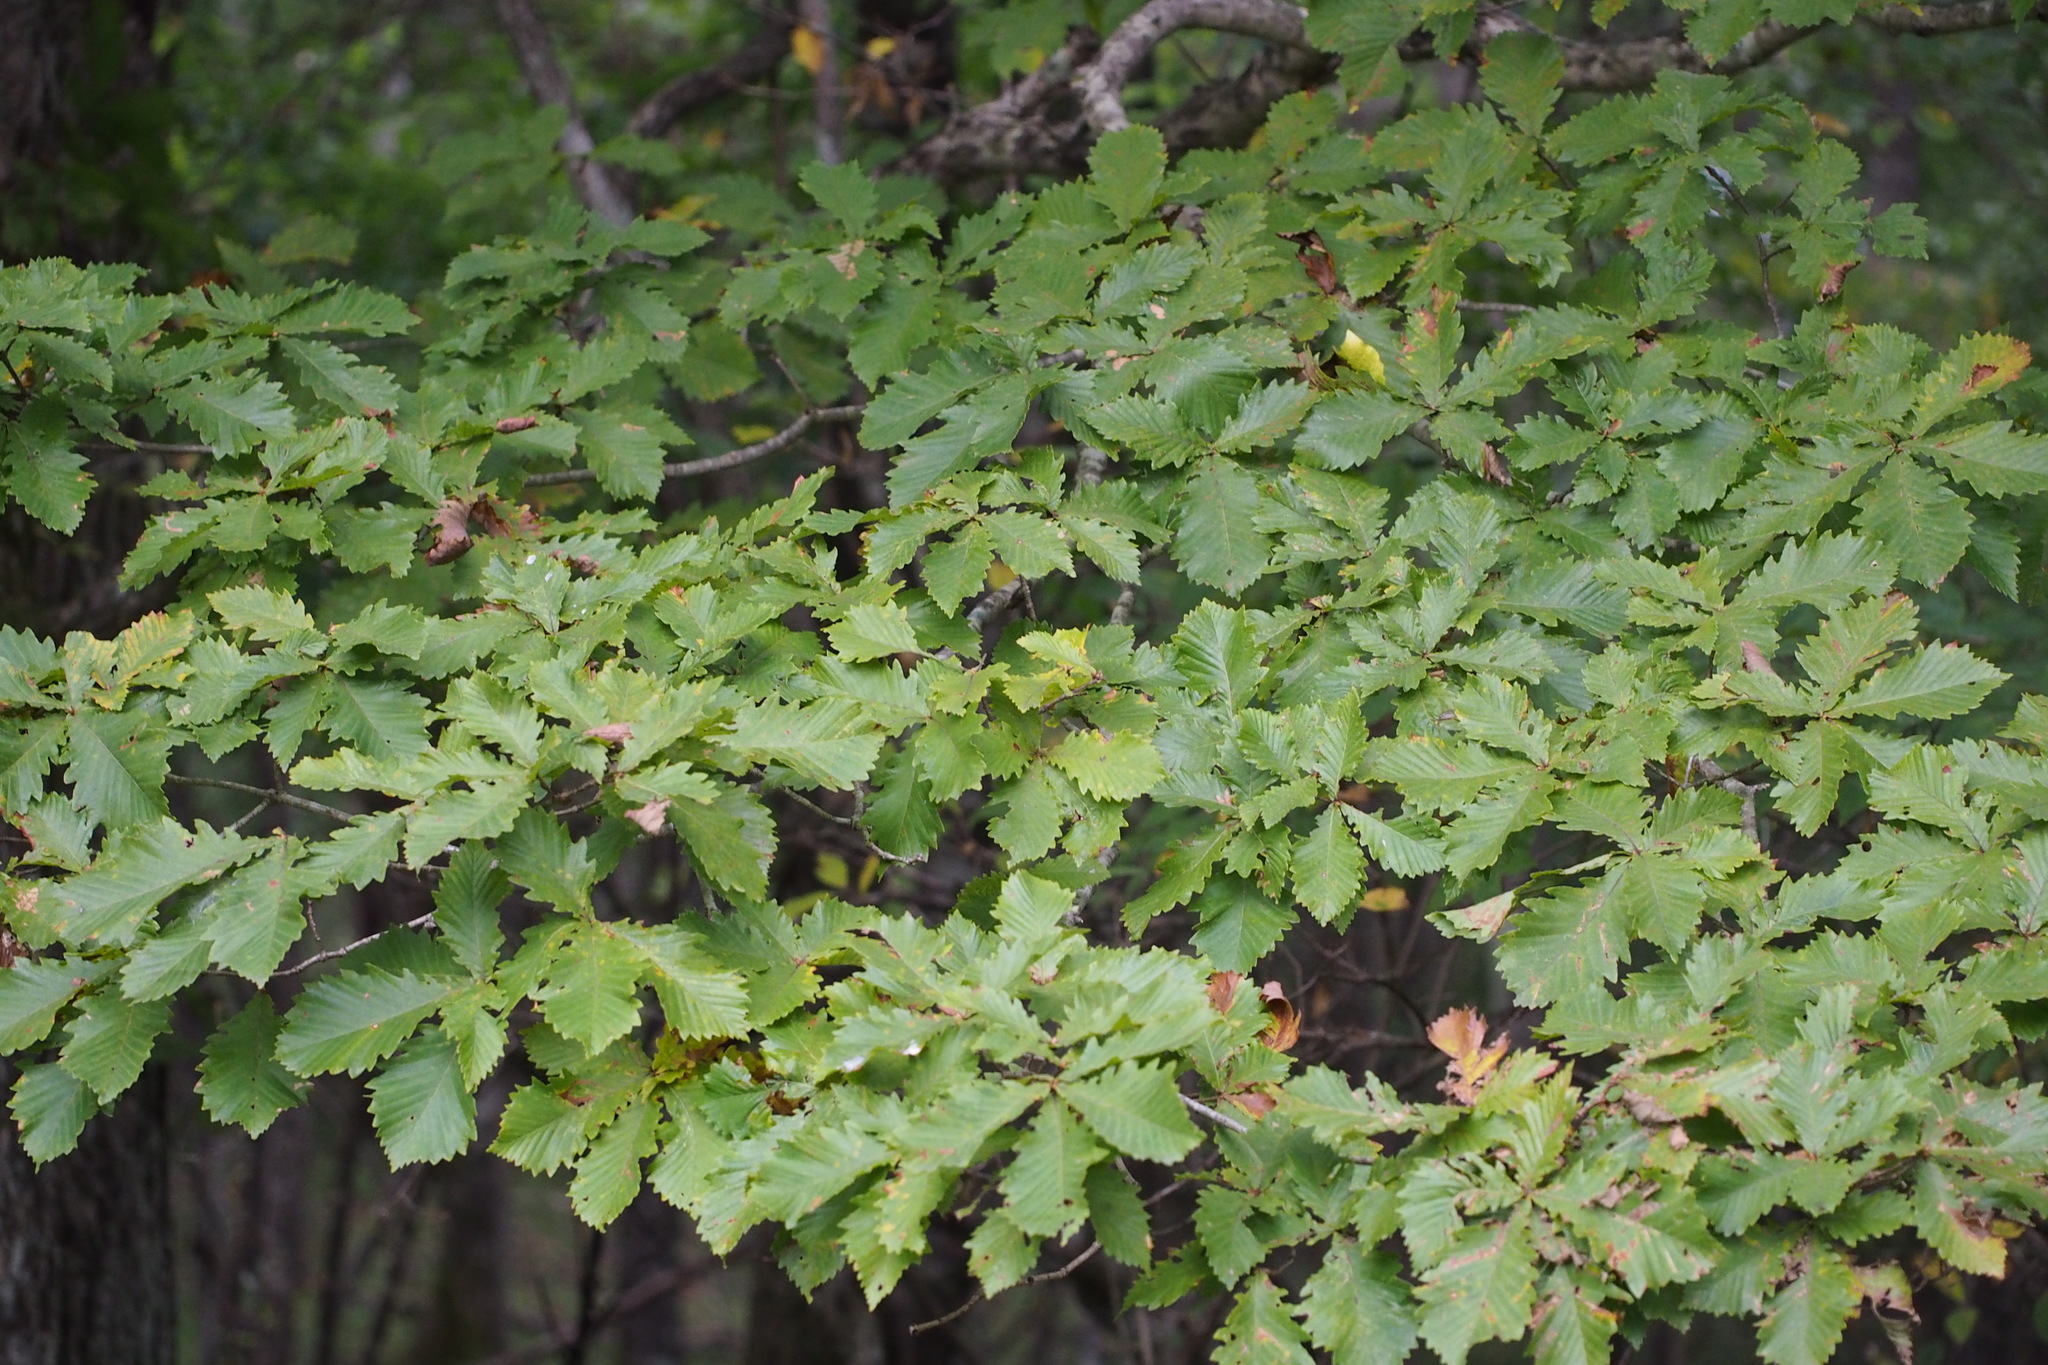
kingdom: Plantae
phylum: Tracheophyta
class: Magnoliopsida
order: Fagales
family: Fagaceae
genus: Quercus
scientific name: Quercus crispula
